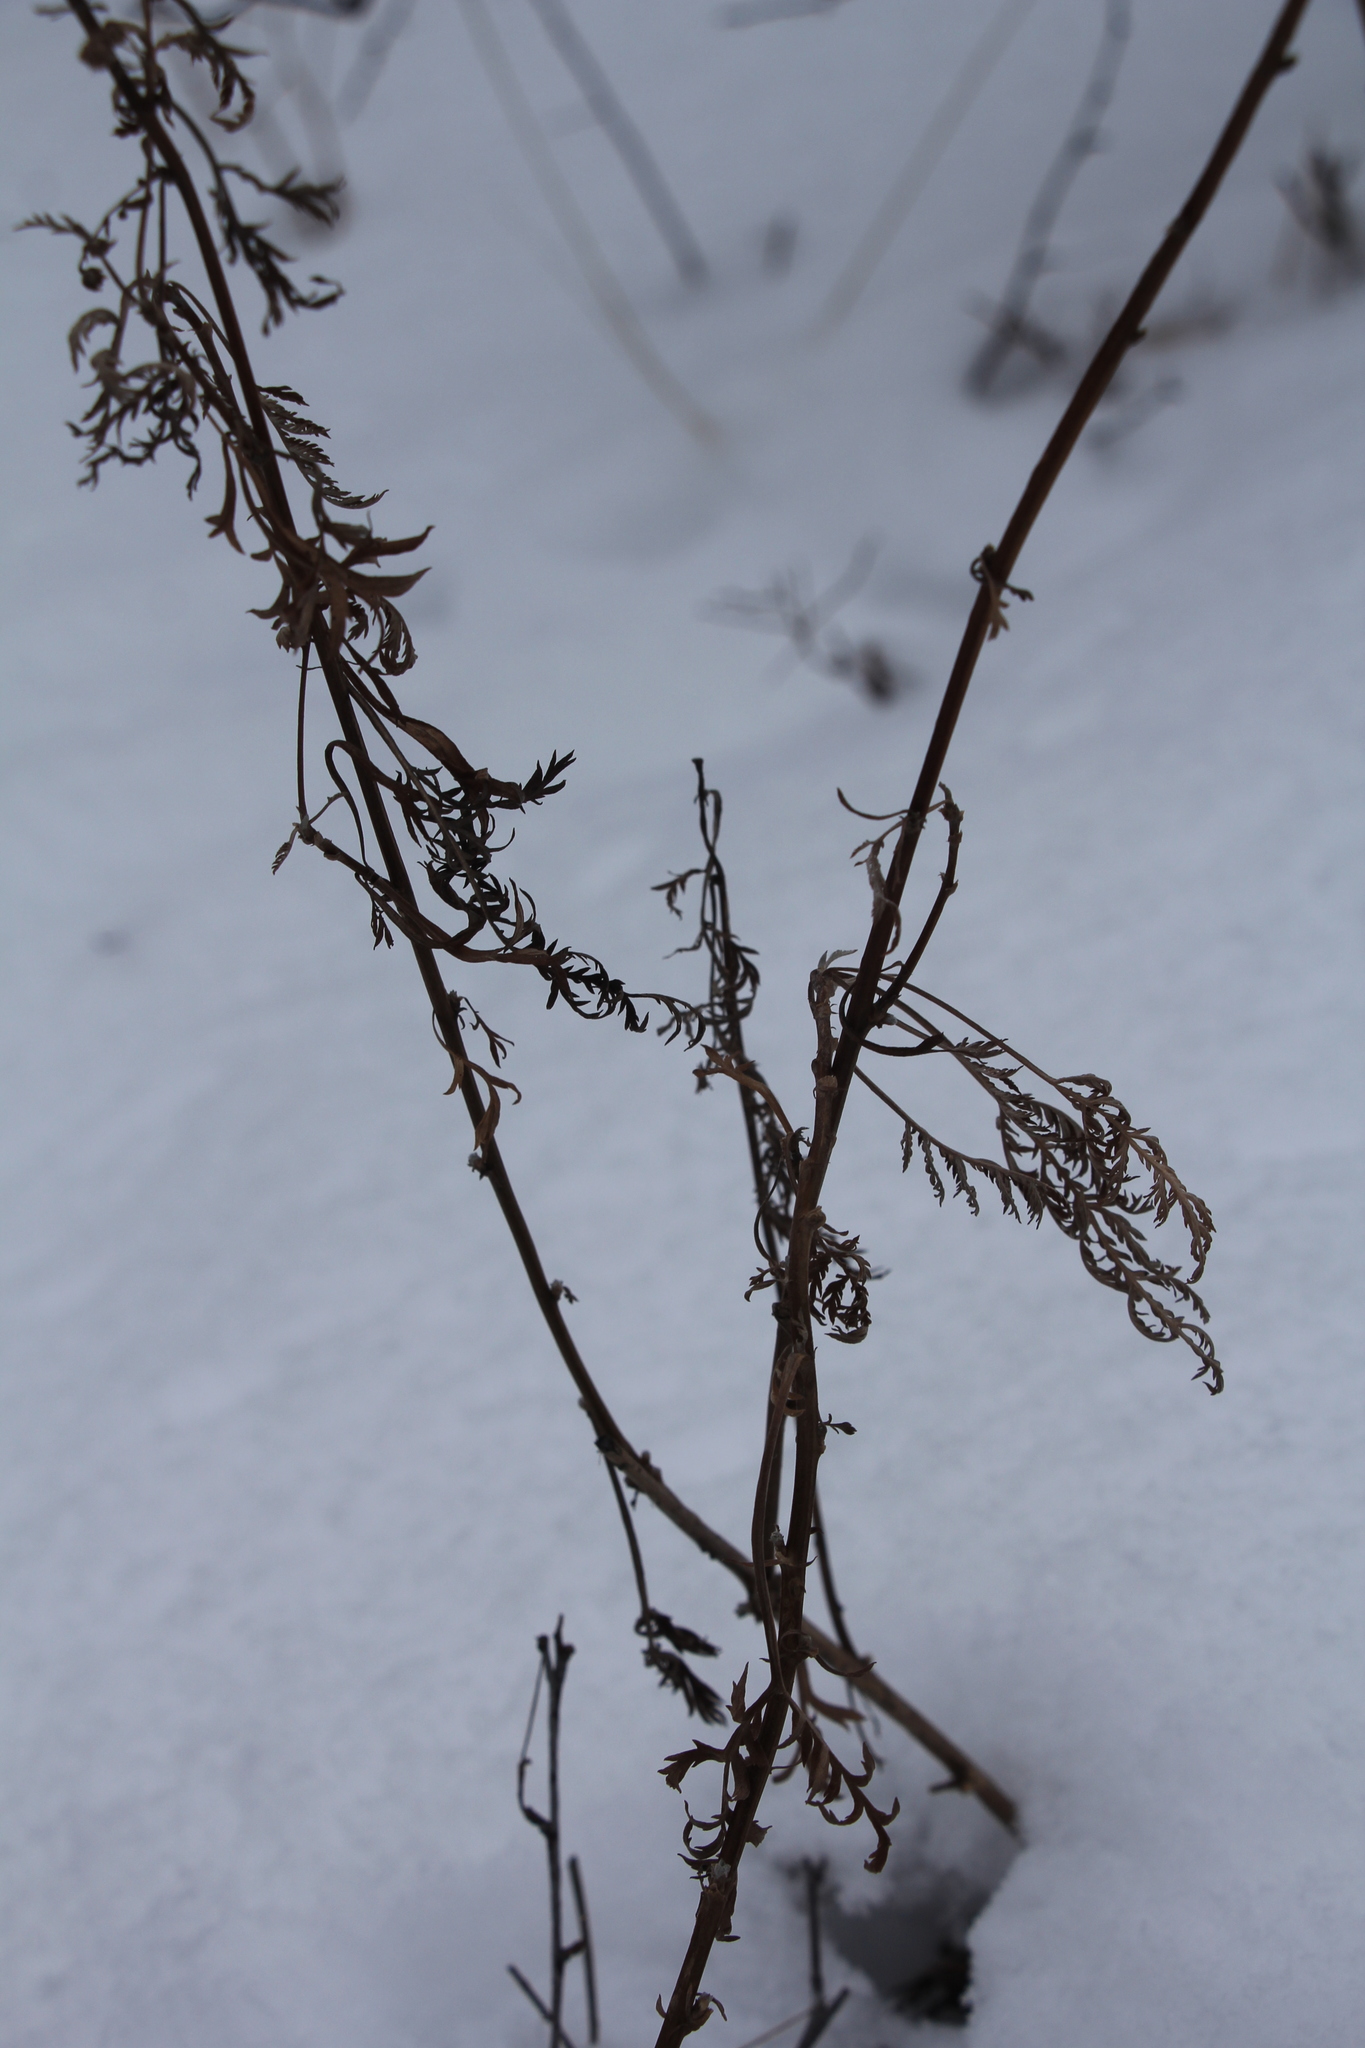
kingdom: Plantae
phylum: Tracheophyta
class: Magnoliopsida
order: Asterales
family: Asteraceae
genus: Artemisia
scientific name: Artemisia gmelinii
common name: Gmelin's wormwood
